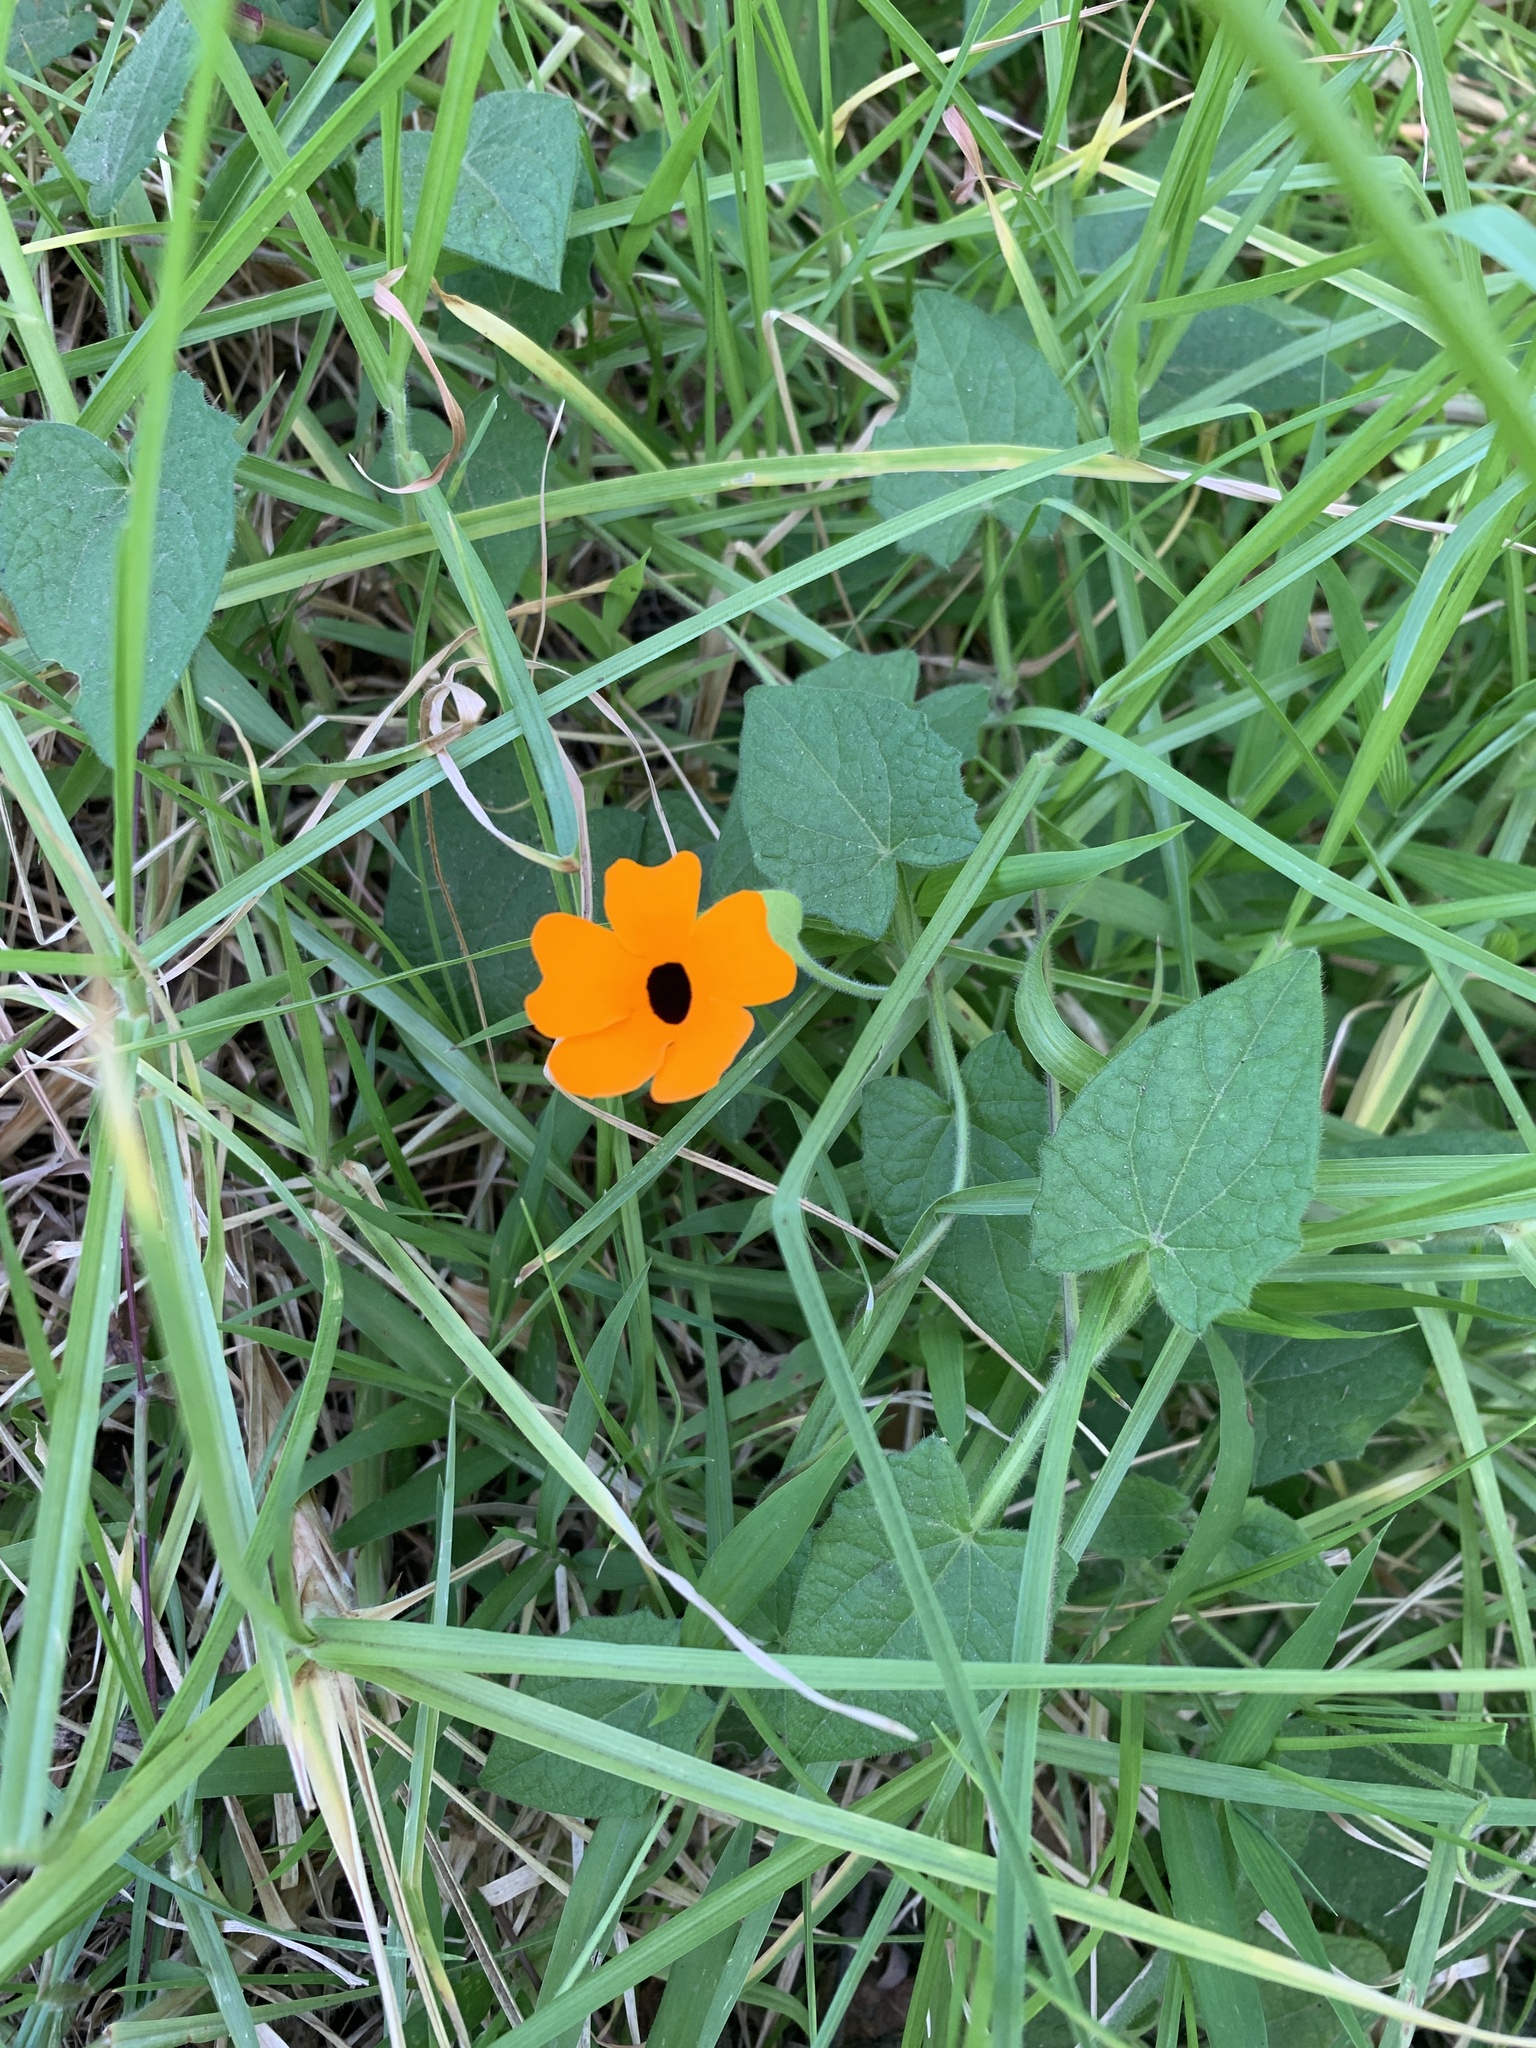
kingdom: Plantae
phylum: Tracheophyta
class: Magnoliopsida
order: Lamiales
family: Acanthaceae
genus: Thunbergia
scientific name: Thunbergia alata
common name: Blackeyed susan vine
